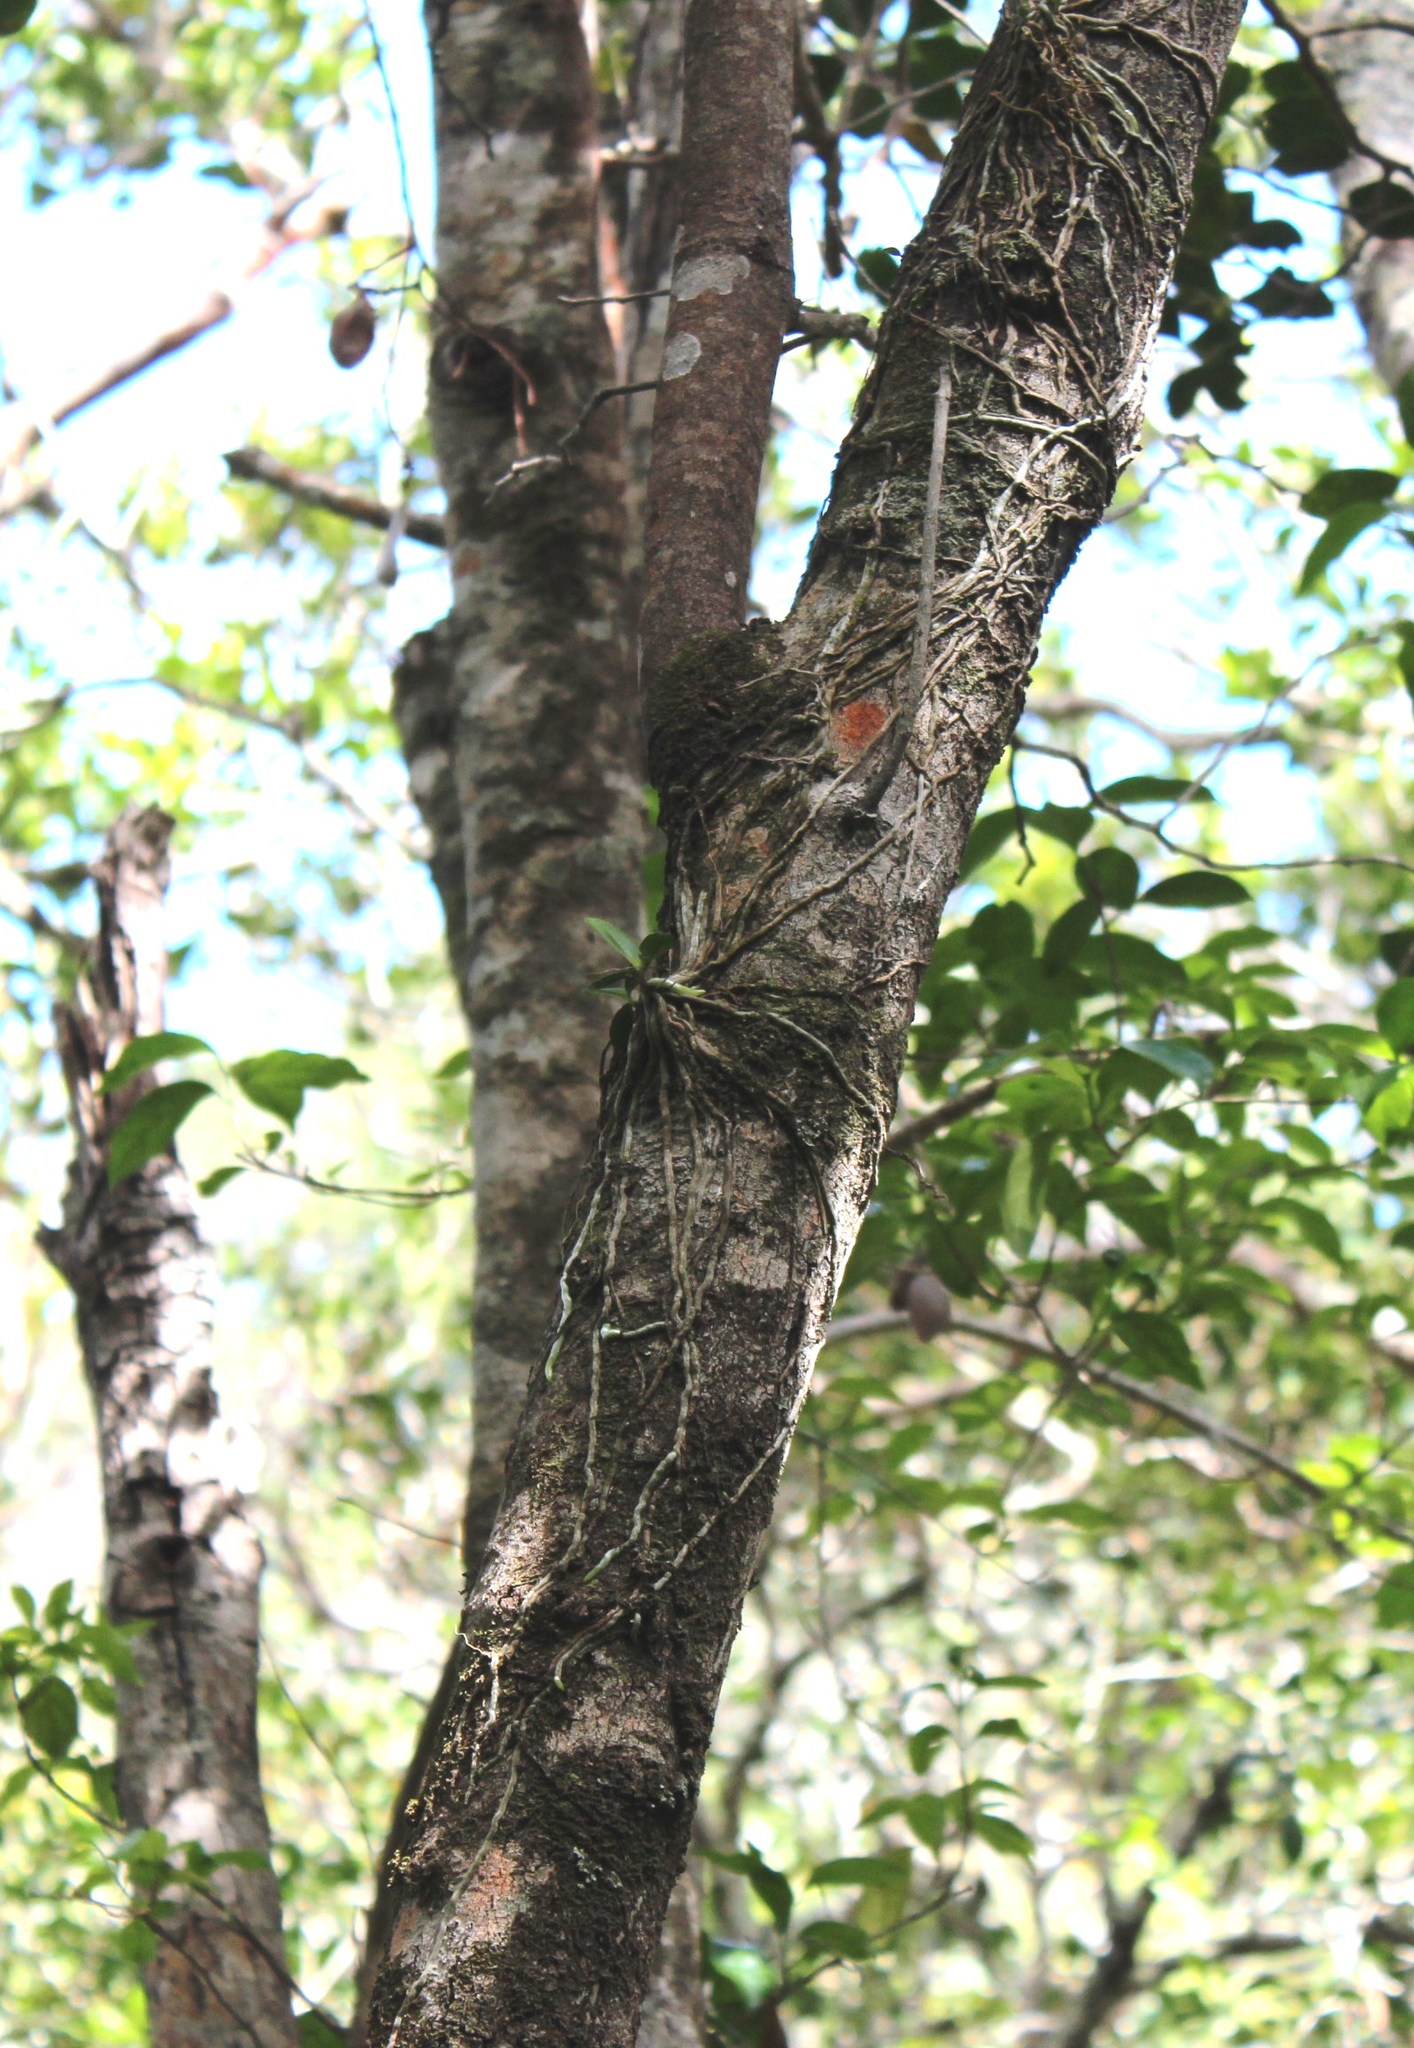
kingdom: Plantae
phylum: Tracheophyta
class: Liliopsida
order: Asparagales
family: Orchidaceae
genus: Mystacidium
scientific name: Mystacidium capense
